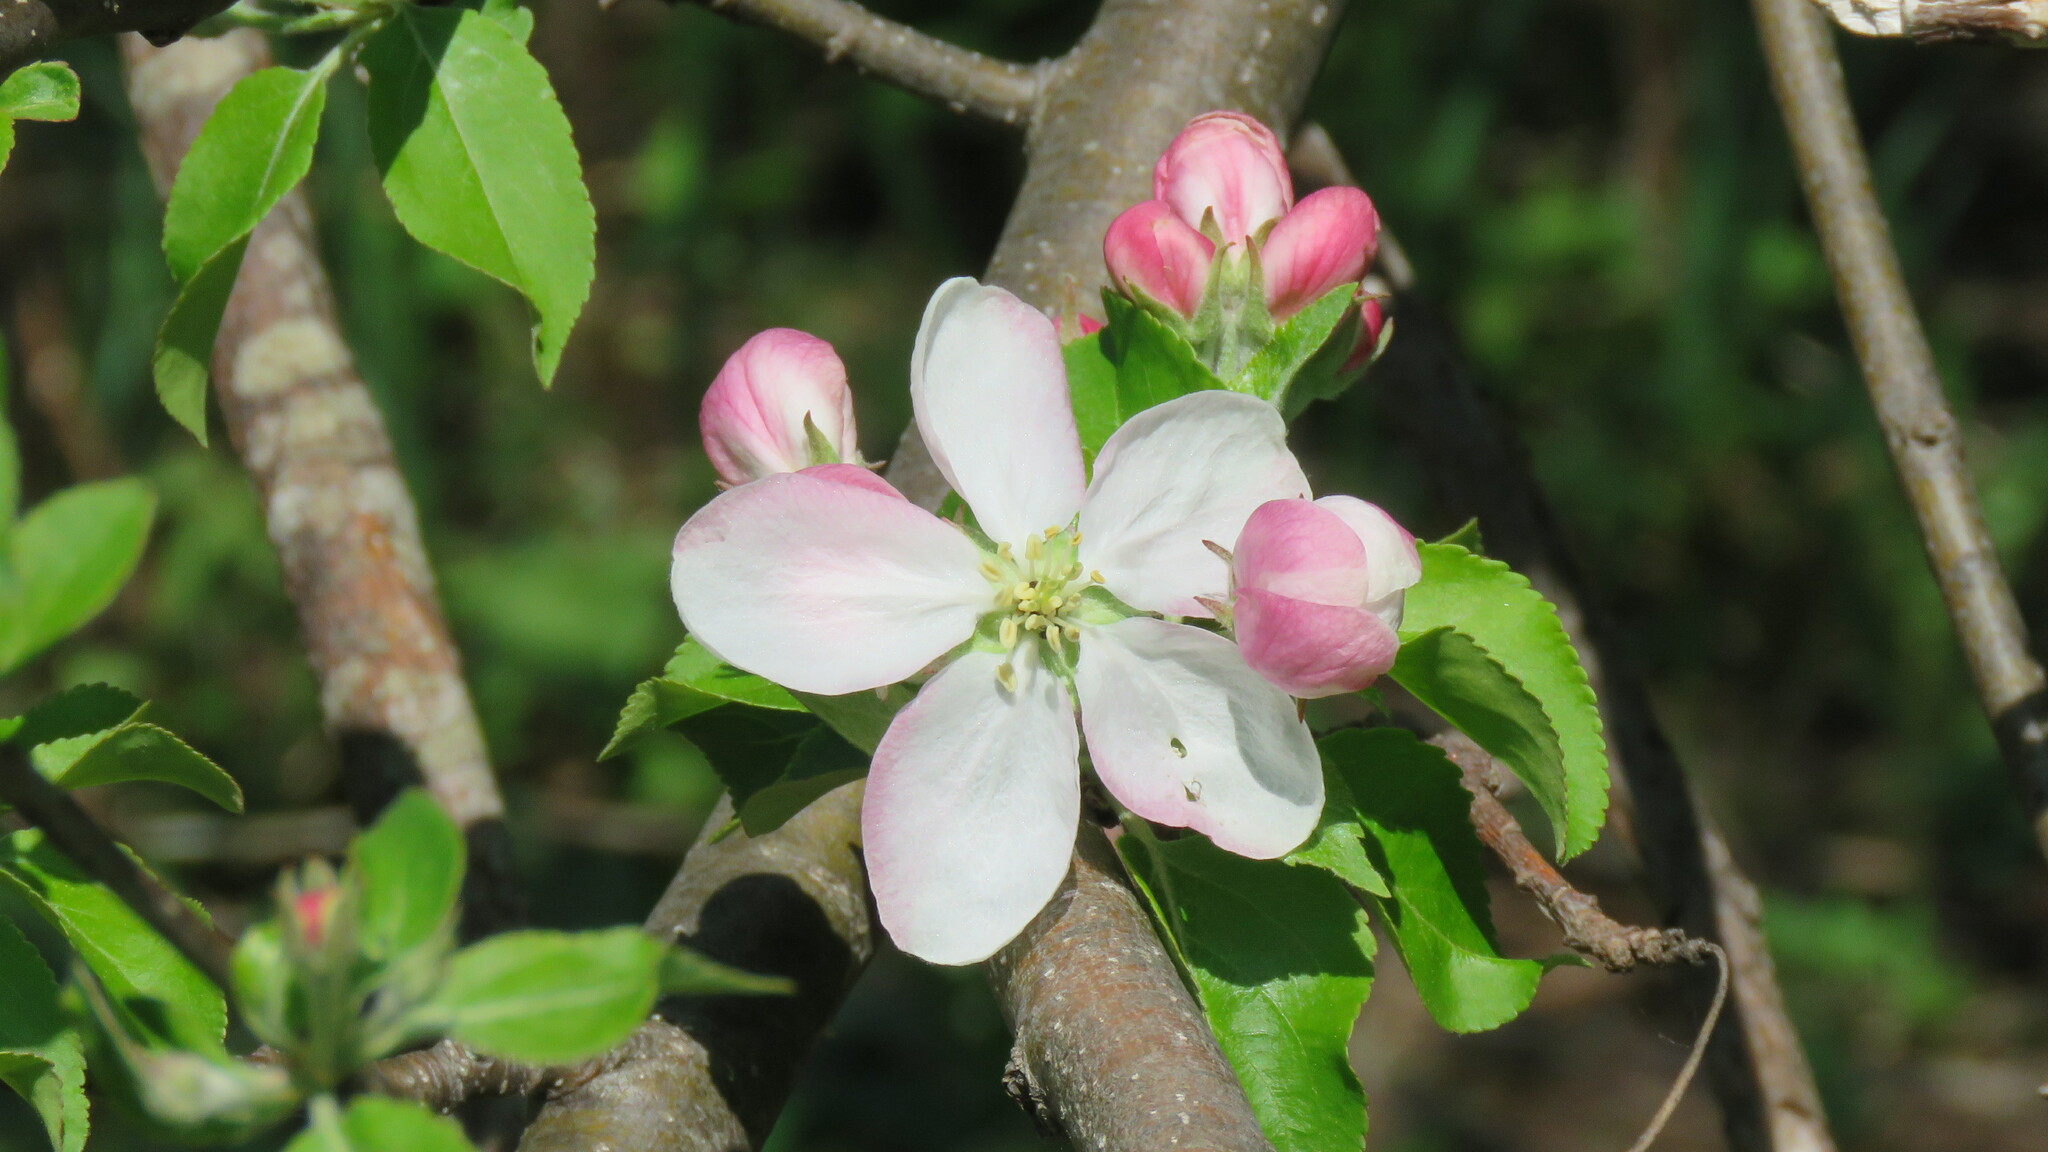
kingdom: Plantae
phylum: Tracheophyta
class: Magnoliopsida
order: Rosales
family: Rosaceae
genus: Malus
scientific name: Malus domestica
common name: Apple
